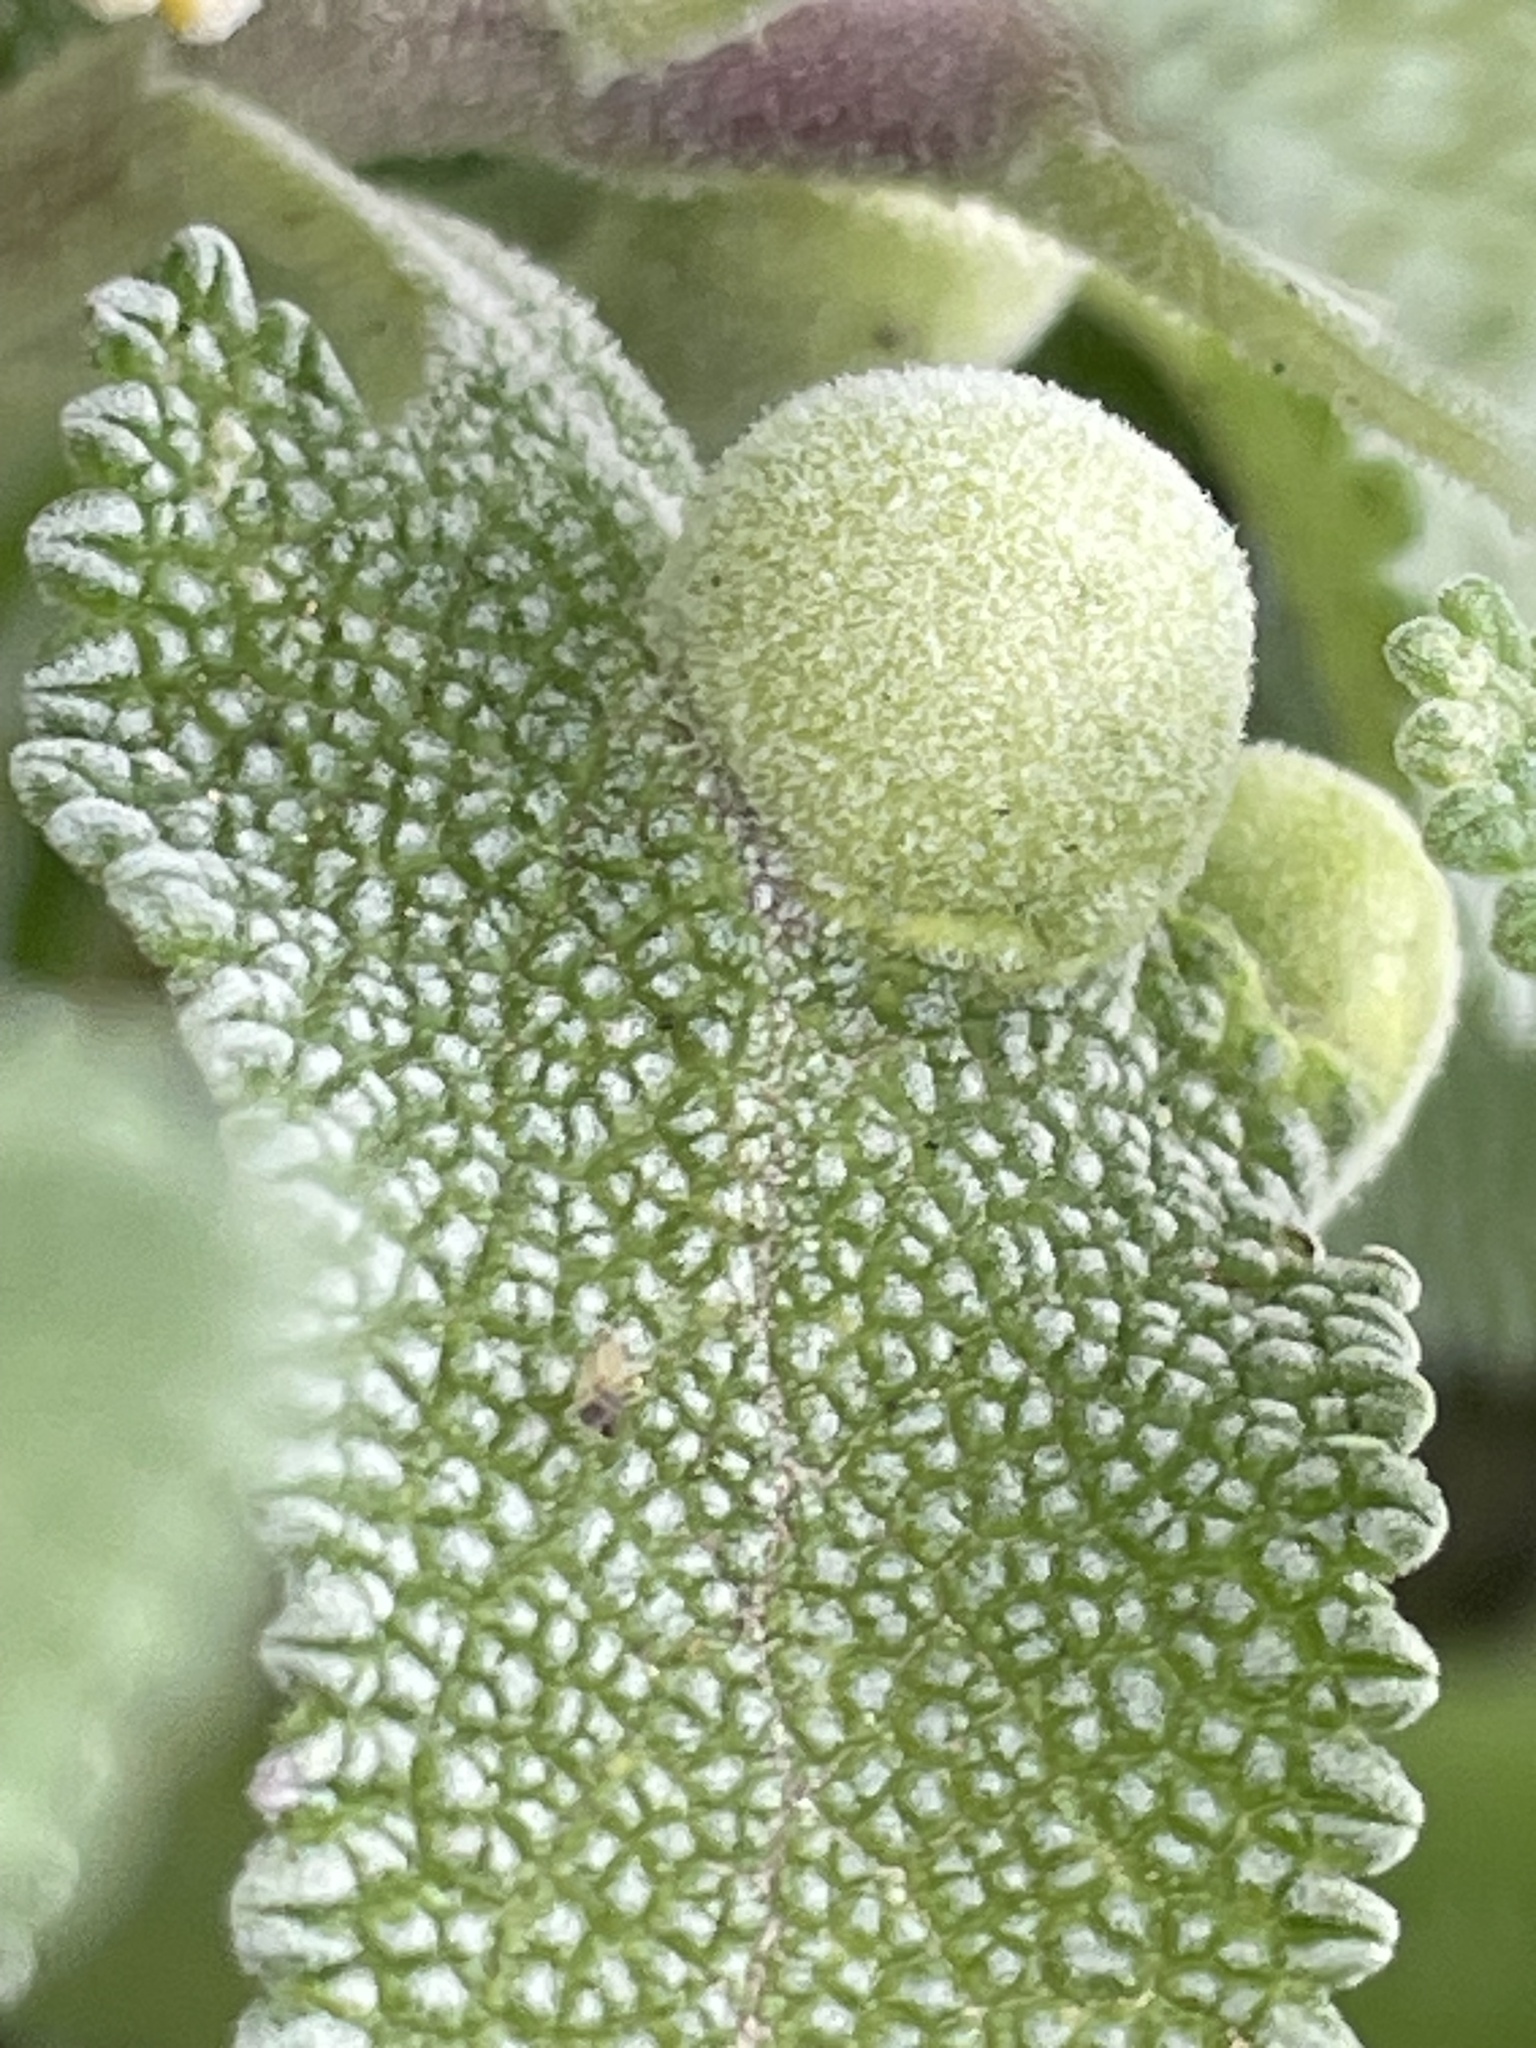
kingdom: Animalia
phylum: Arthropoda
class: Insecta
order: Diptera
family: Cecidomyiidae
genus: Rhopalomyia
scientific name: Rhopalomyia audibertiae
